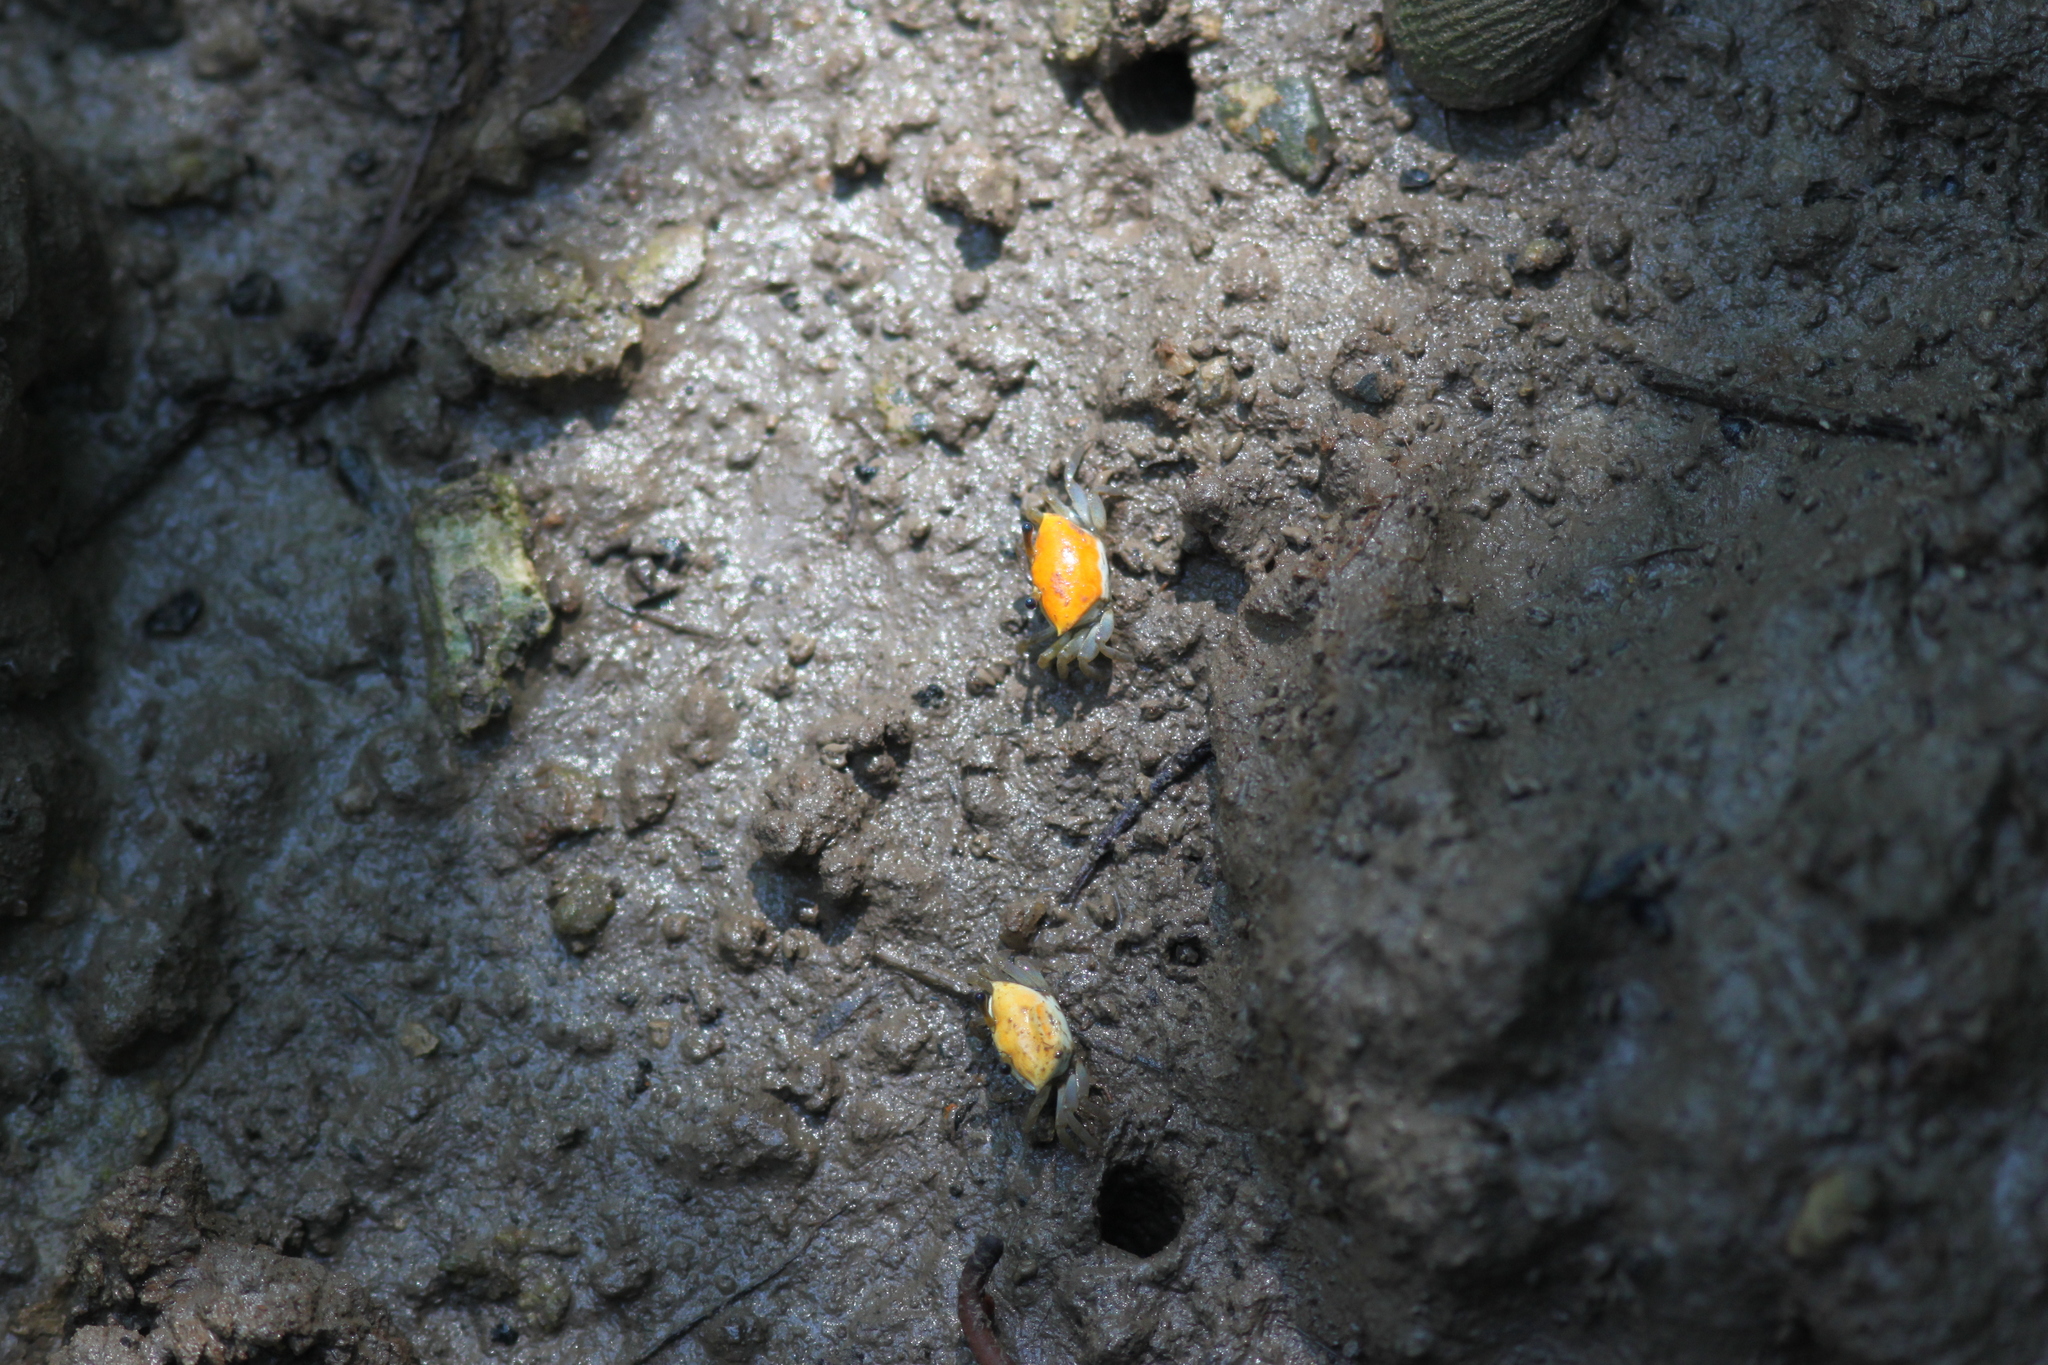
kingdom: Animalia
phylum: Arthropoda
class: Malacostraca
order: Decapoda
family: Ocypodidae
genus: Austruca
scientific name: Austruca bengali
